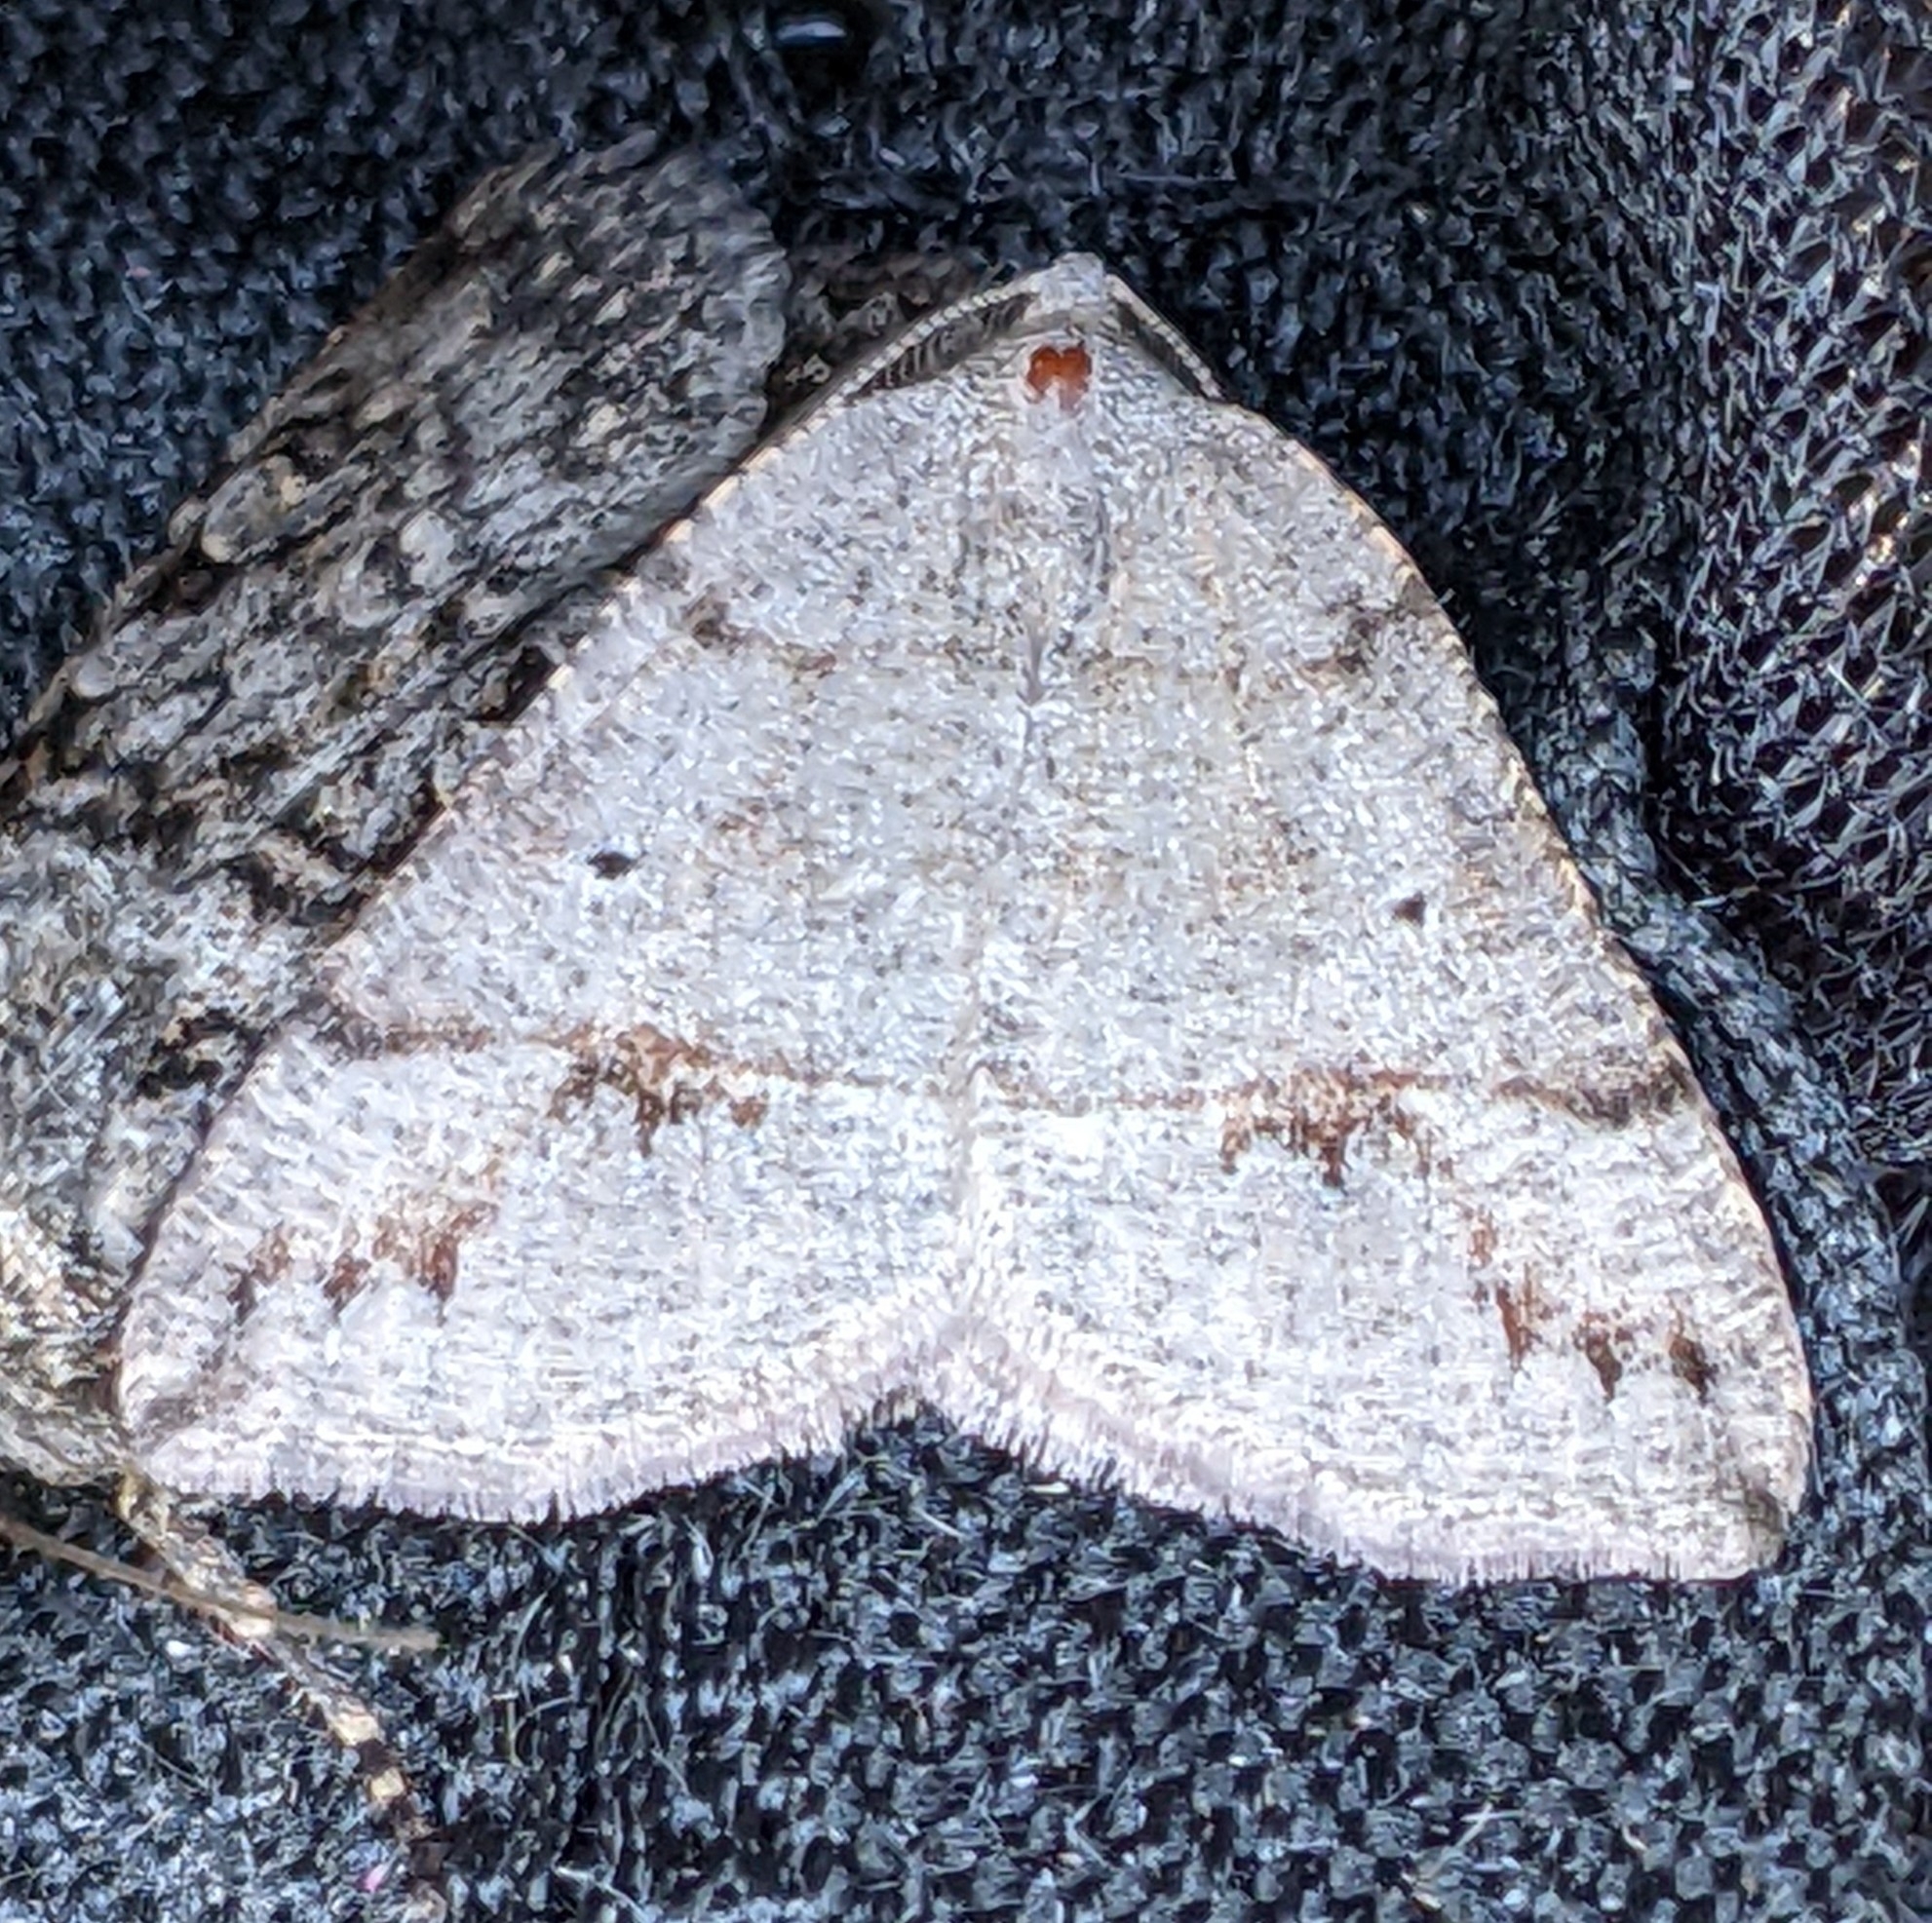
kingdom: Animalia
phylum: Arthropoda
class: Insecta
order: Lepidoptera
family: Geometridae
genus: Drepanulatrix
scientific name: Drepanulatrix quadraria
